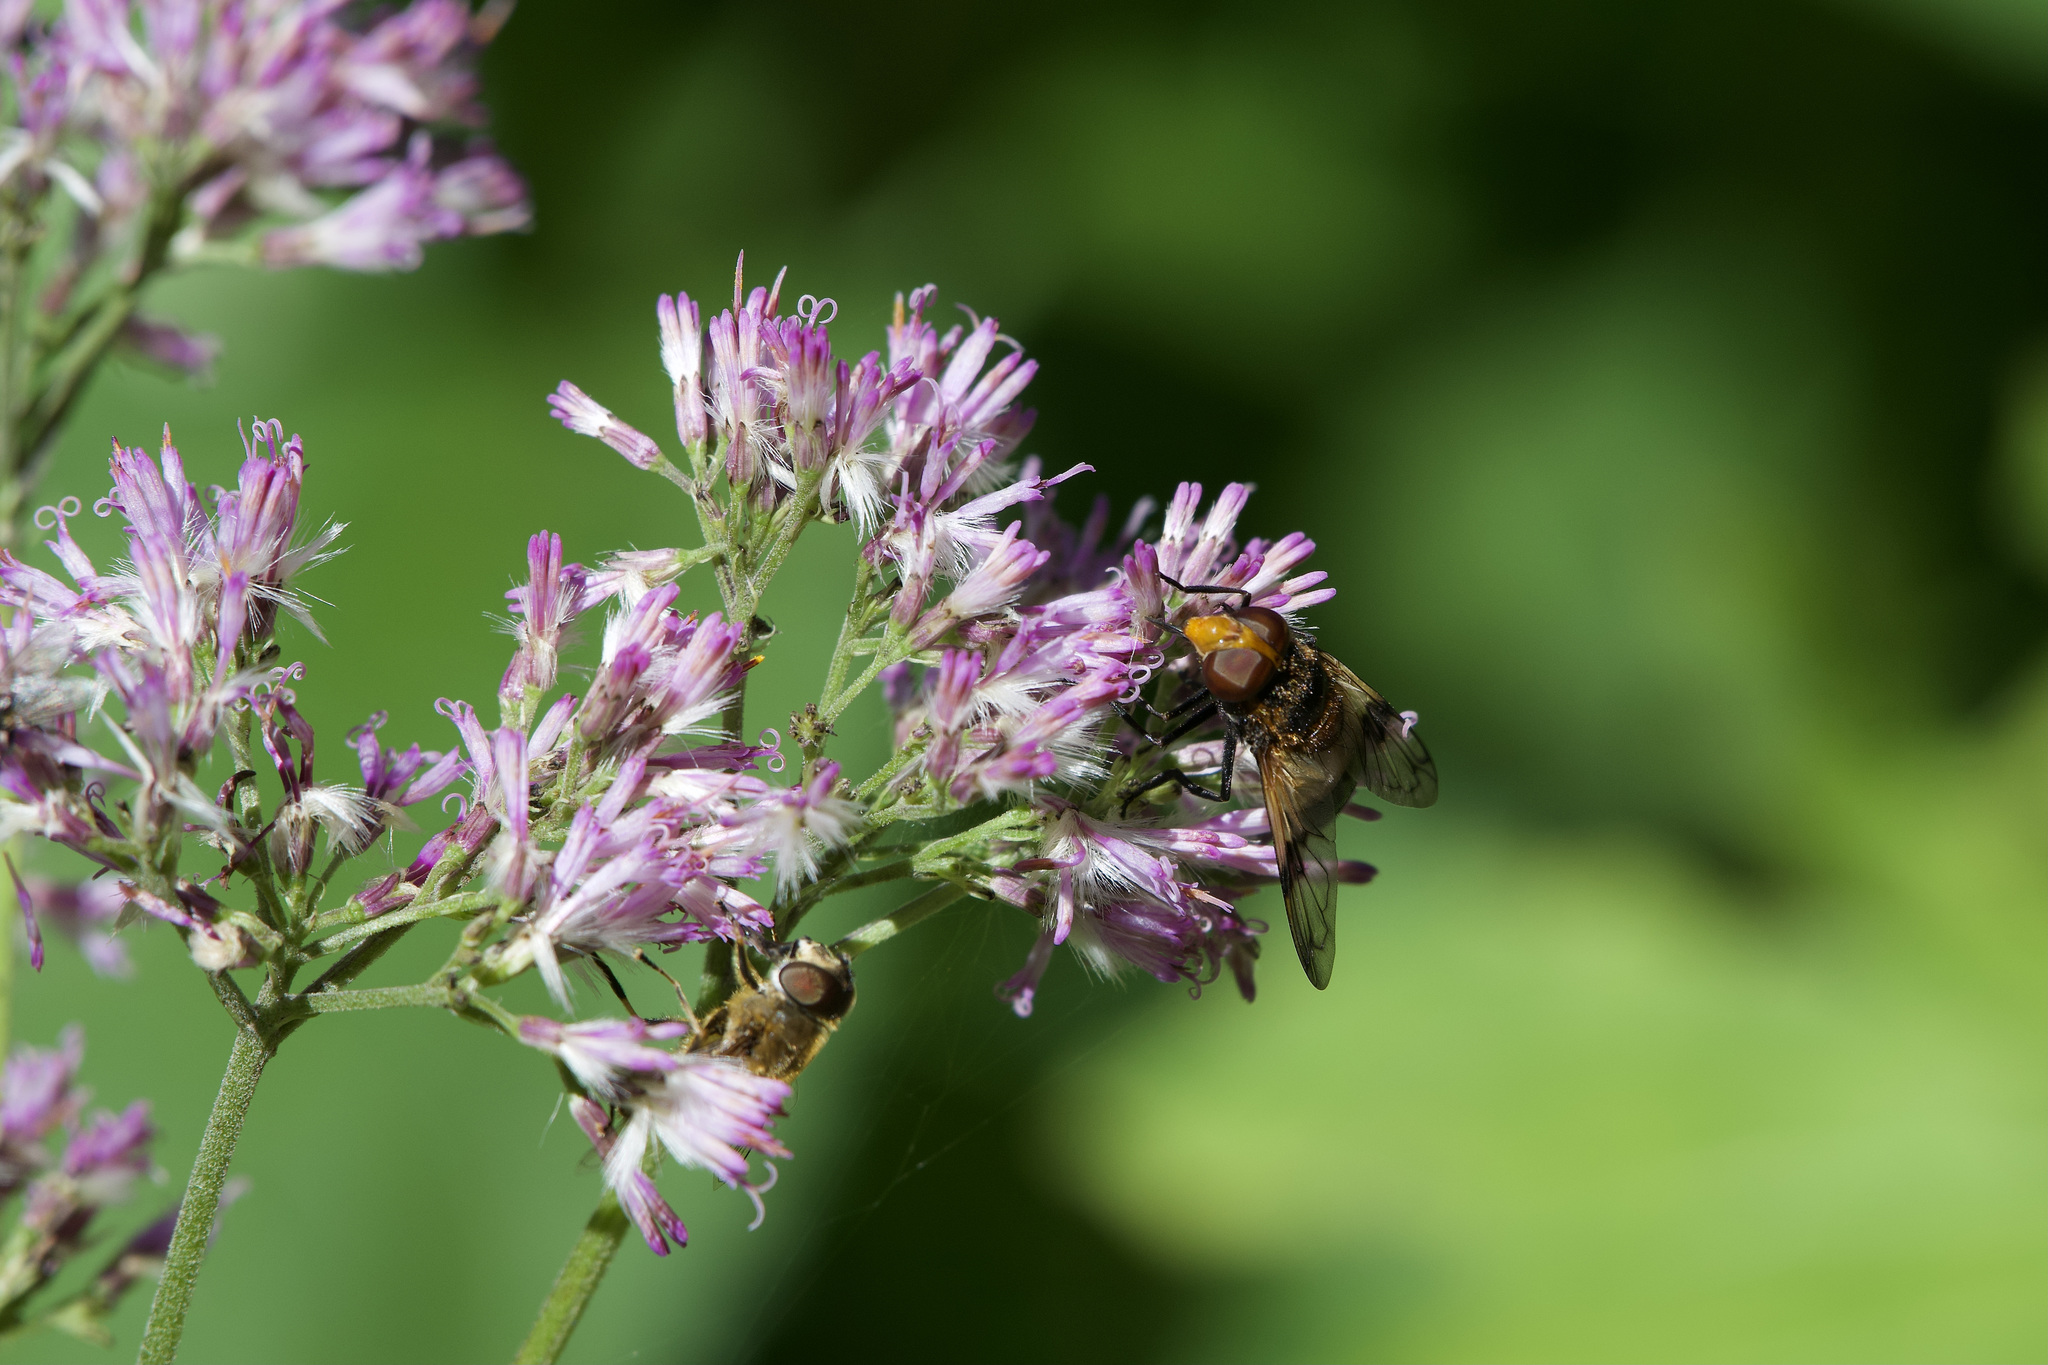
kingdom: Animalia
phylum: Arthropoda
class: Insecta
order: Diptera
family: Syrphidae
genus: Volucella
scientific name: Volucella pellucens
